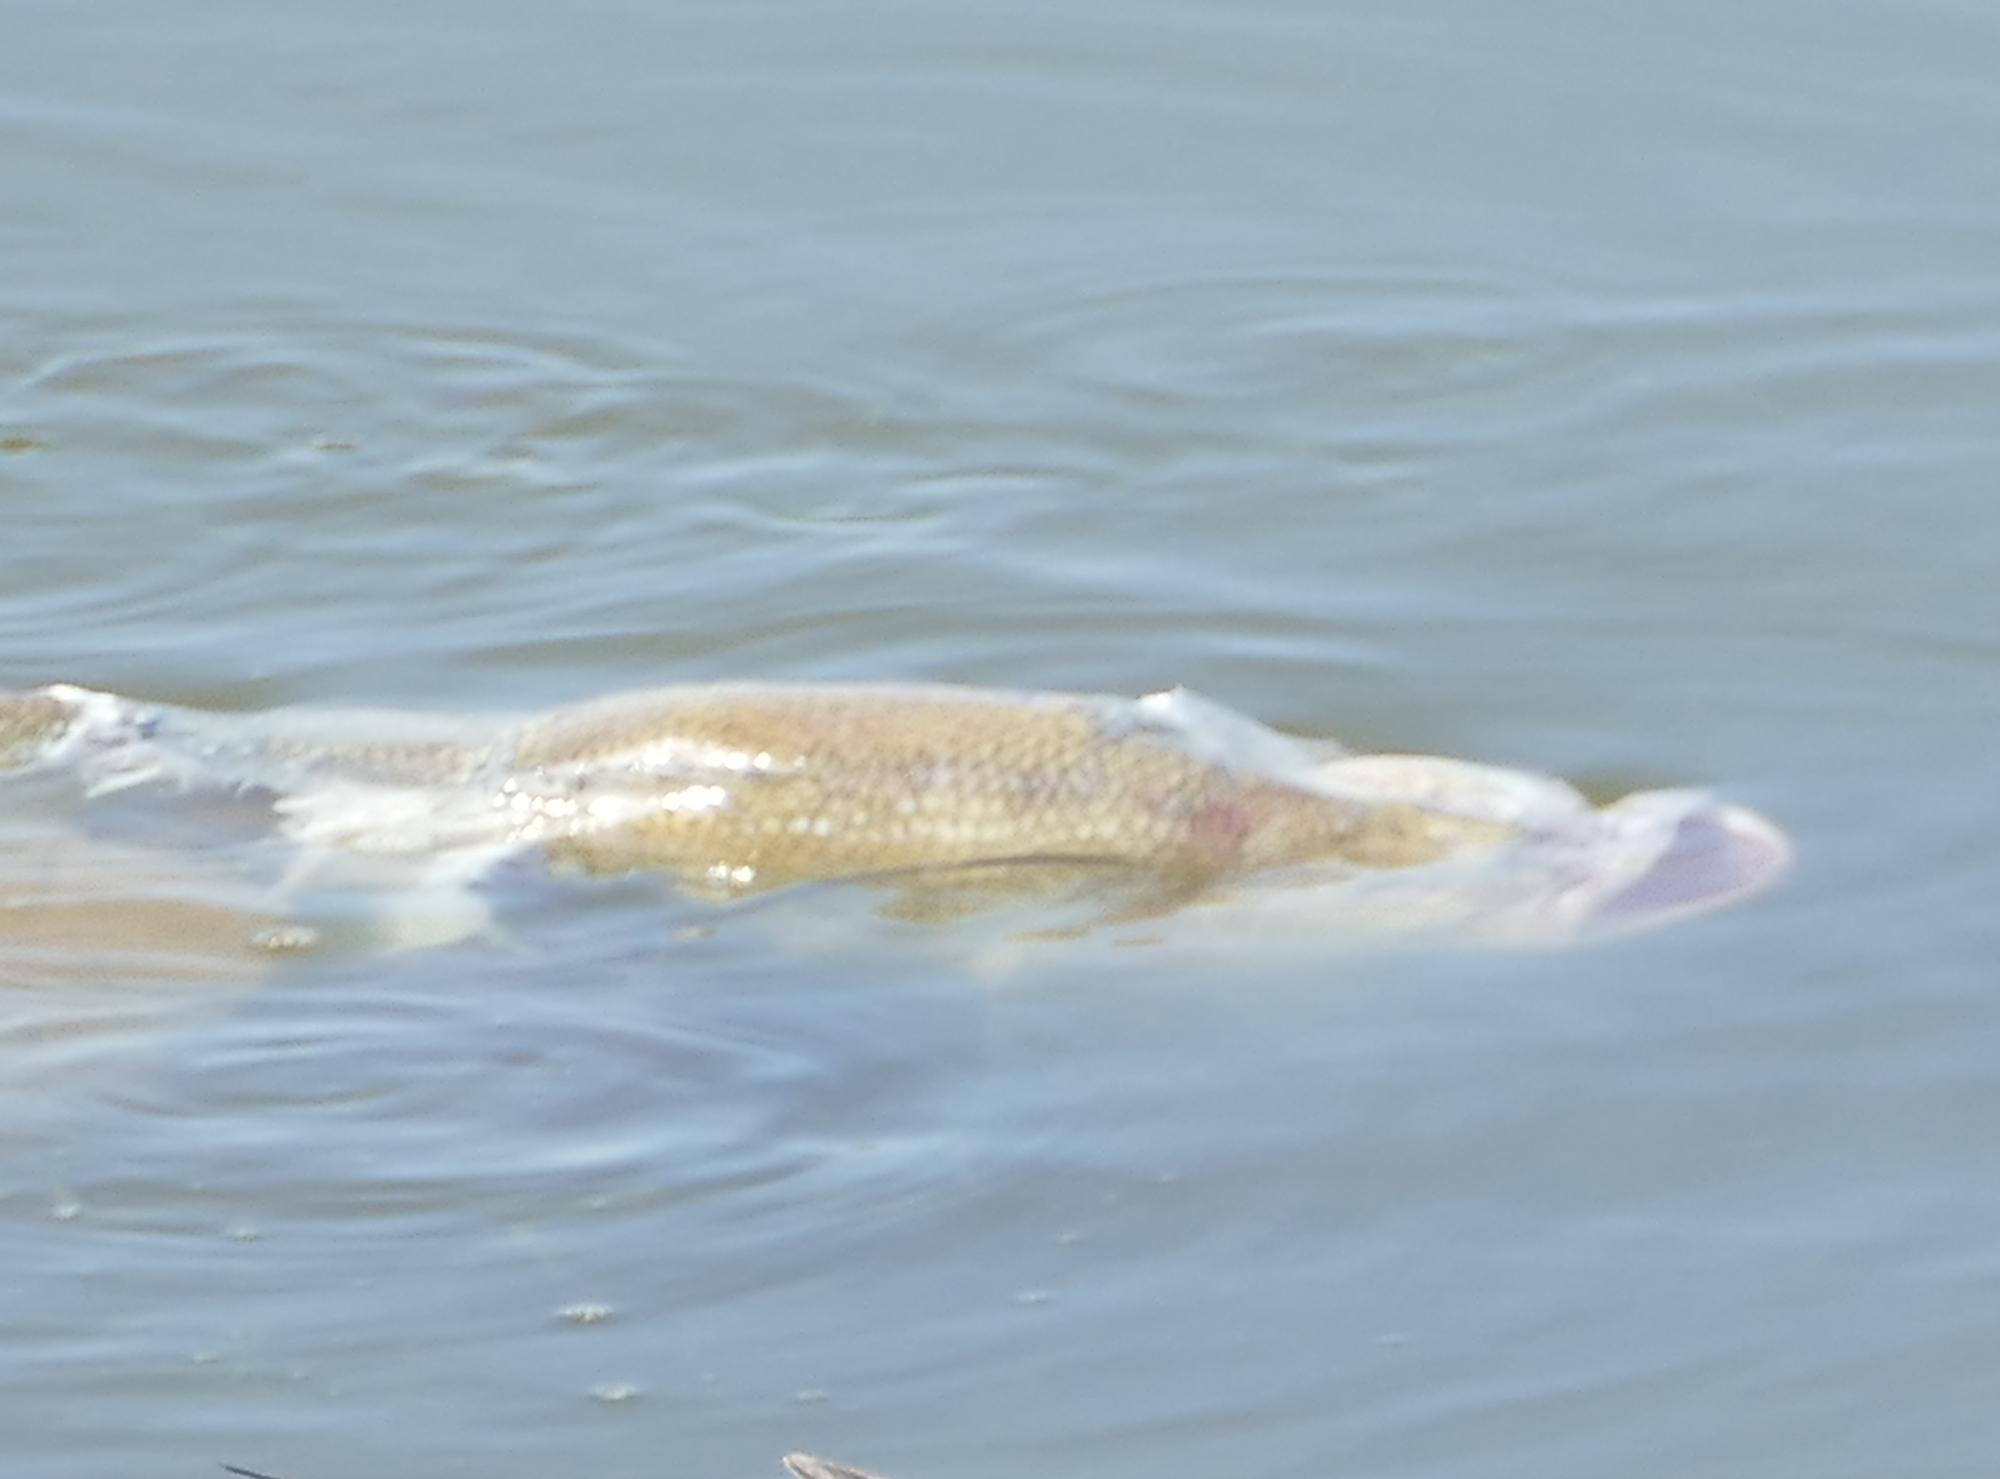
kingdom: Animalia
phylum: Chordata
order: Perciformes
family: Centrarchidae
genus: Micropterus
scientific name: Micropterus
